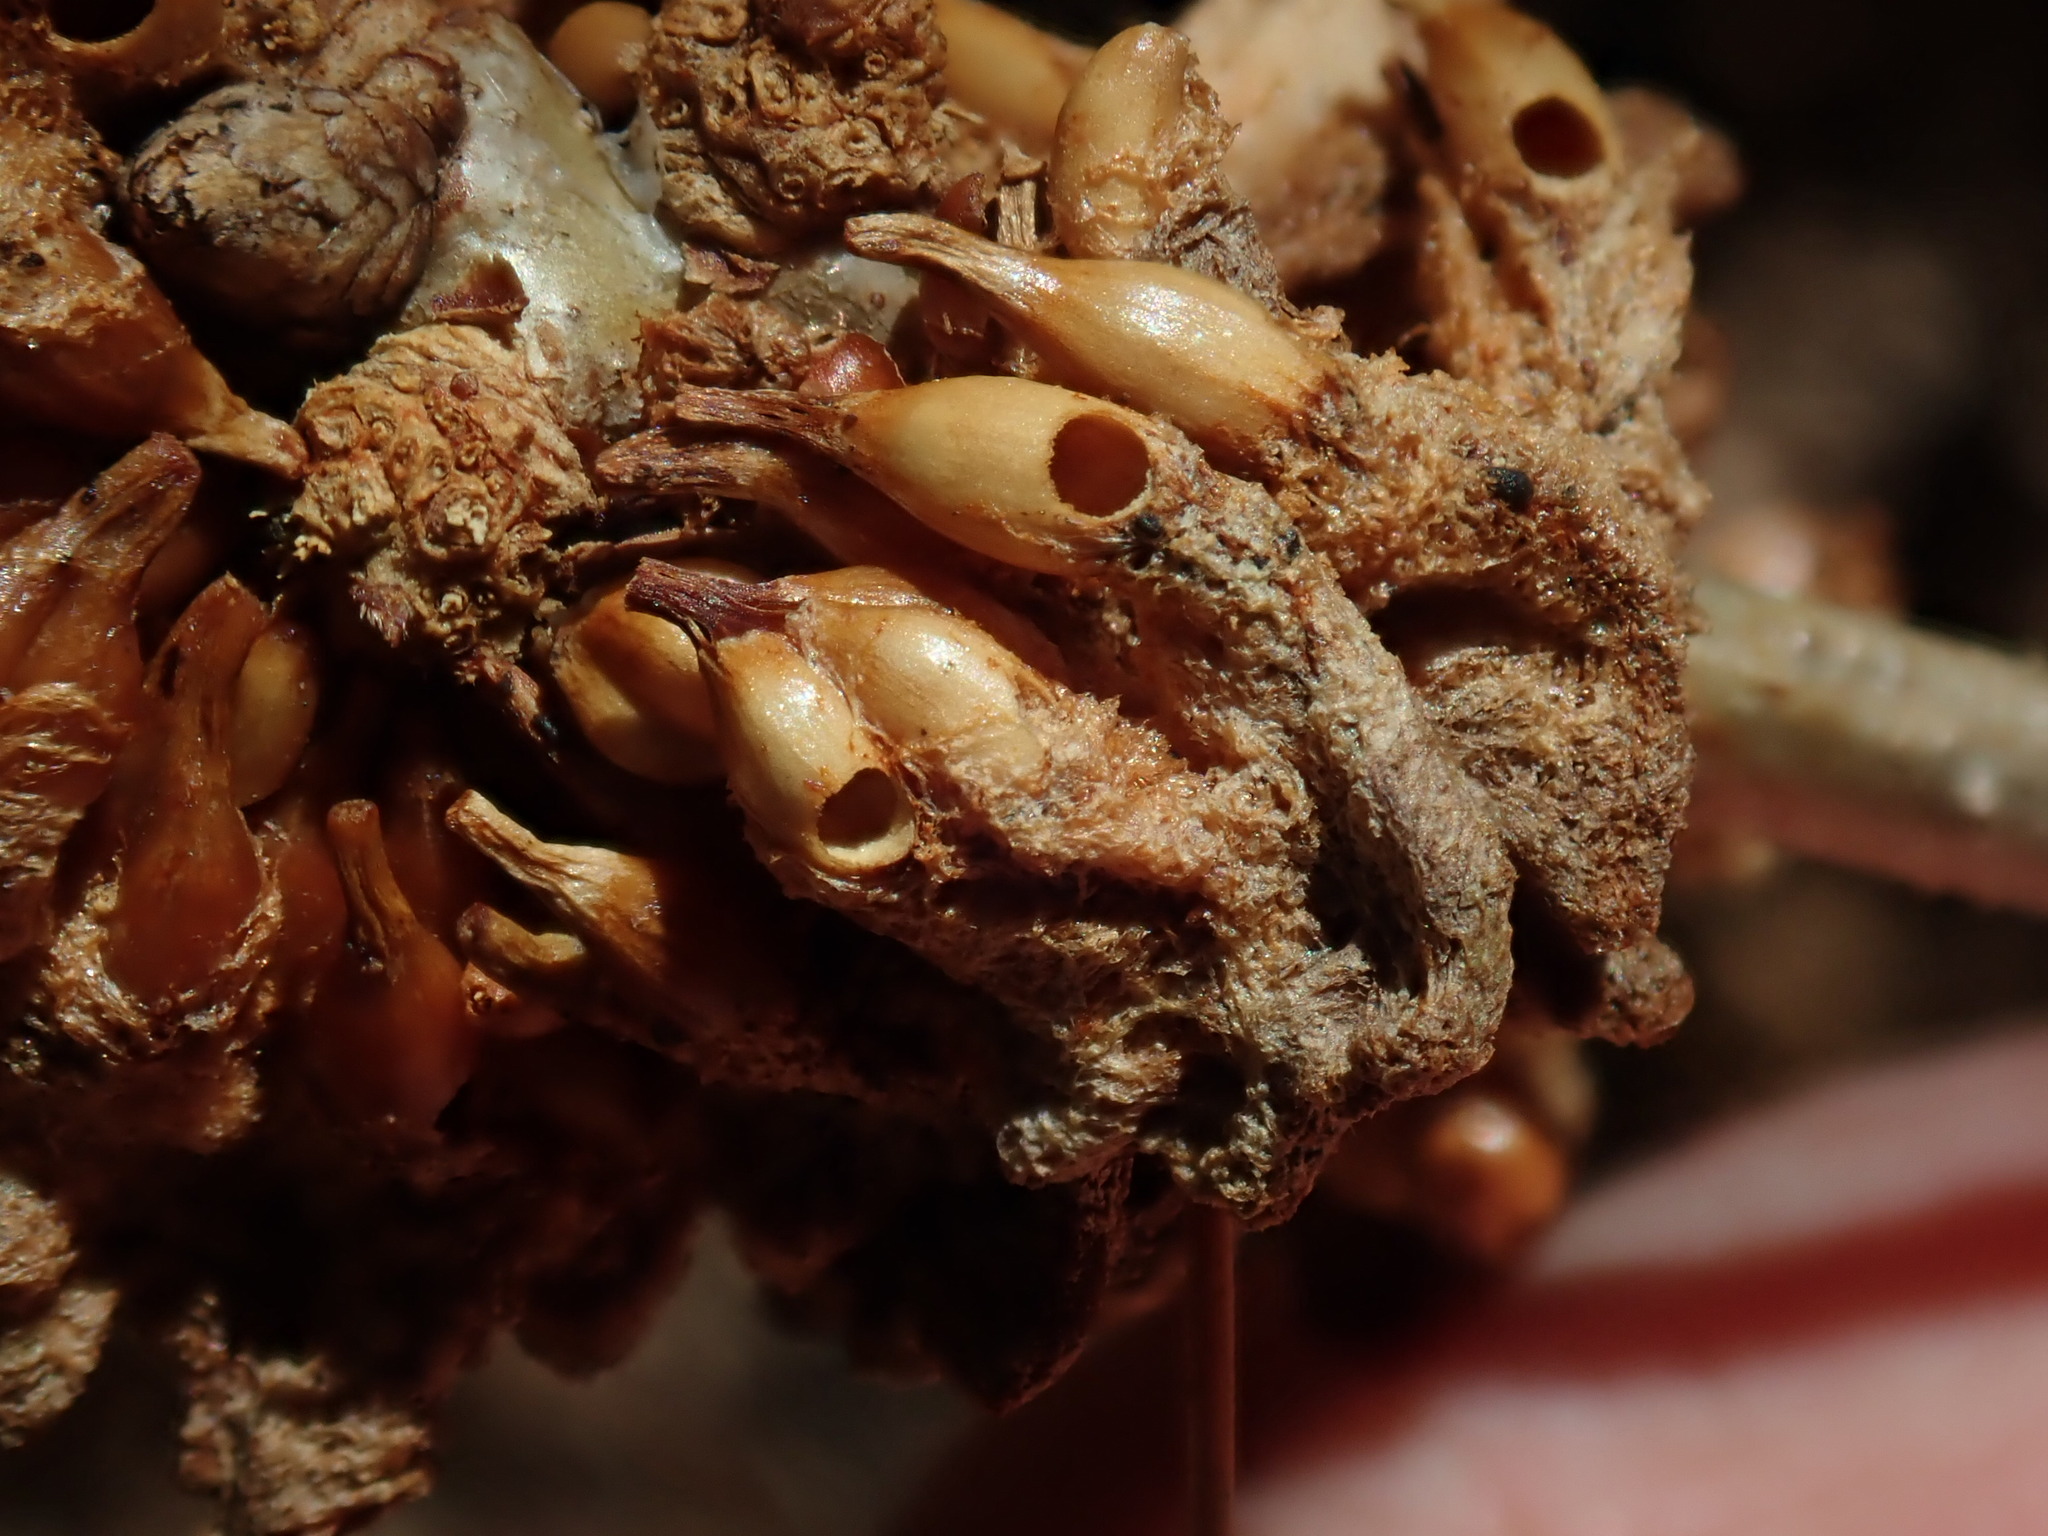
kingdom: Animalia
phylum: Arthropoda
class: Insecta
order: Hymenoptera
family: Cynipidae
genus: Callirhytis
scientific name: Callirhytis
